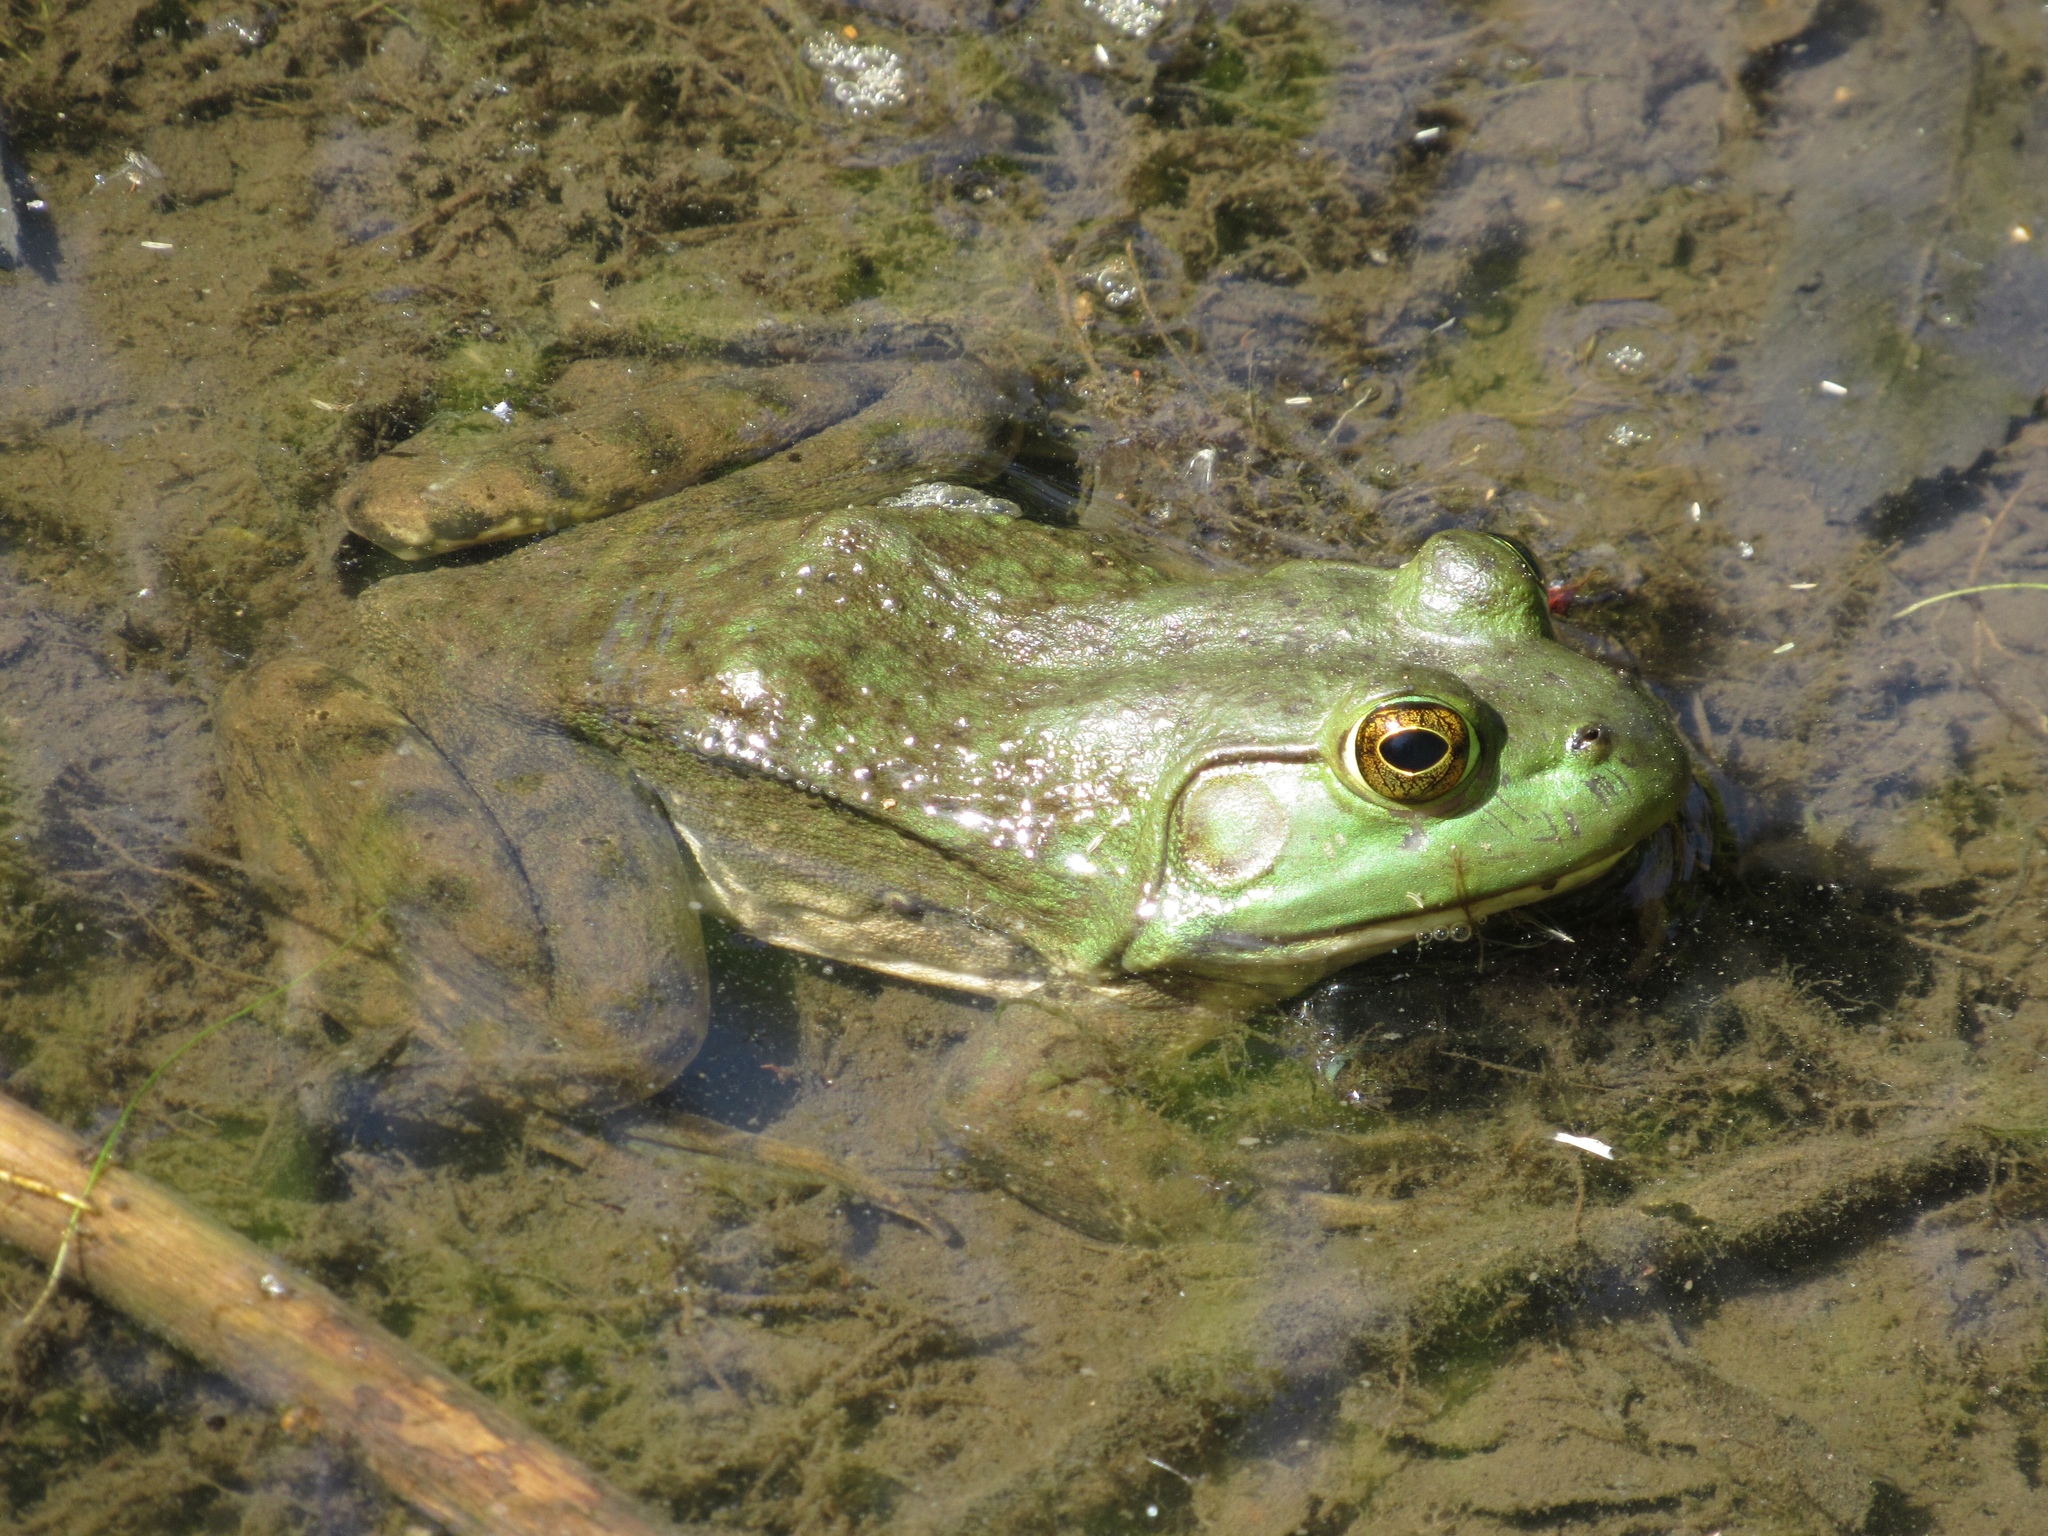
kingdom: Animalia
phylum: Chordata
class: Amphibia
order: Anura
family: Ranidae
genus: Lithobates
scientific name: Lithobates catesbeianus
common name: American bullfrog
